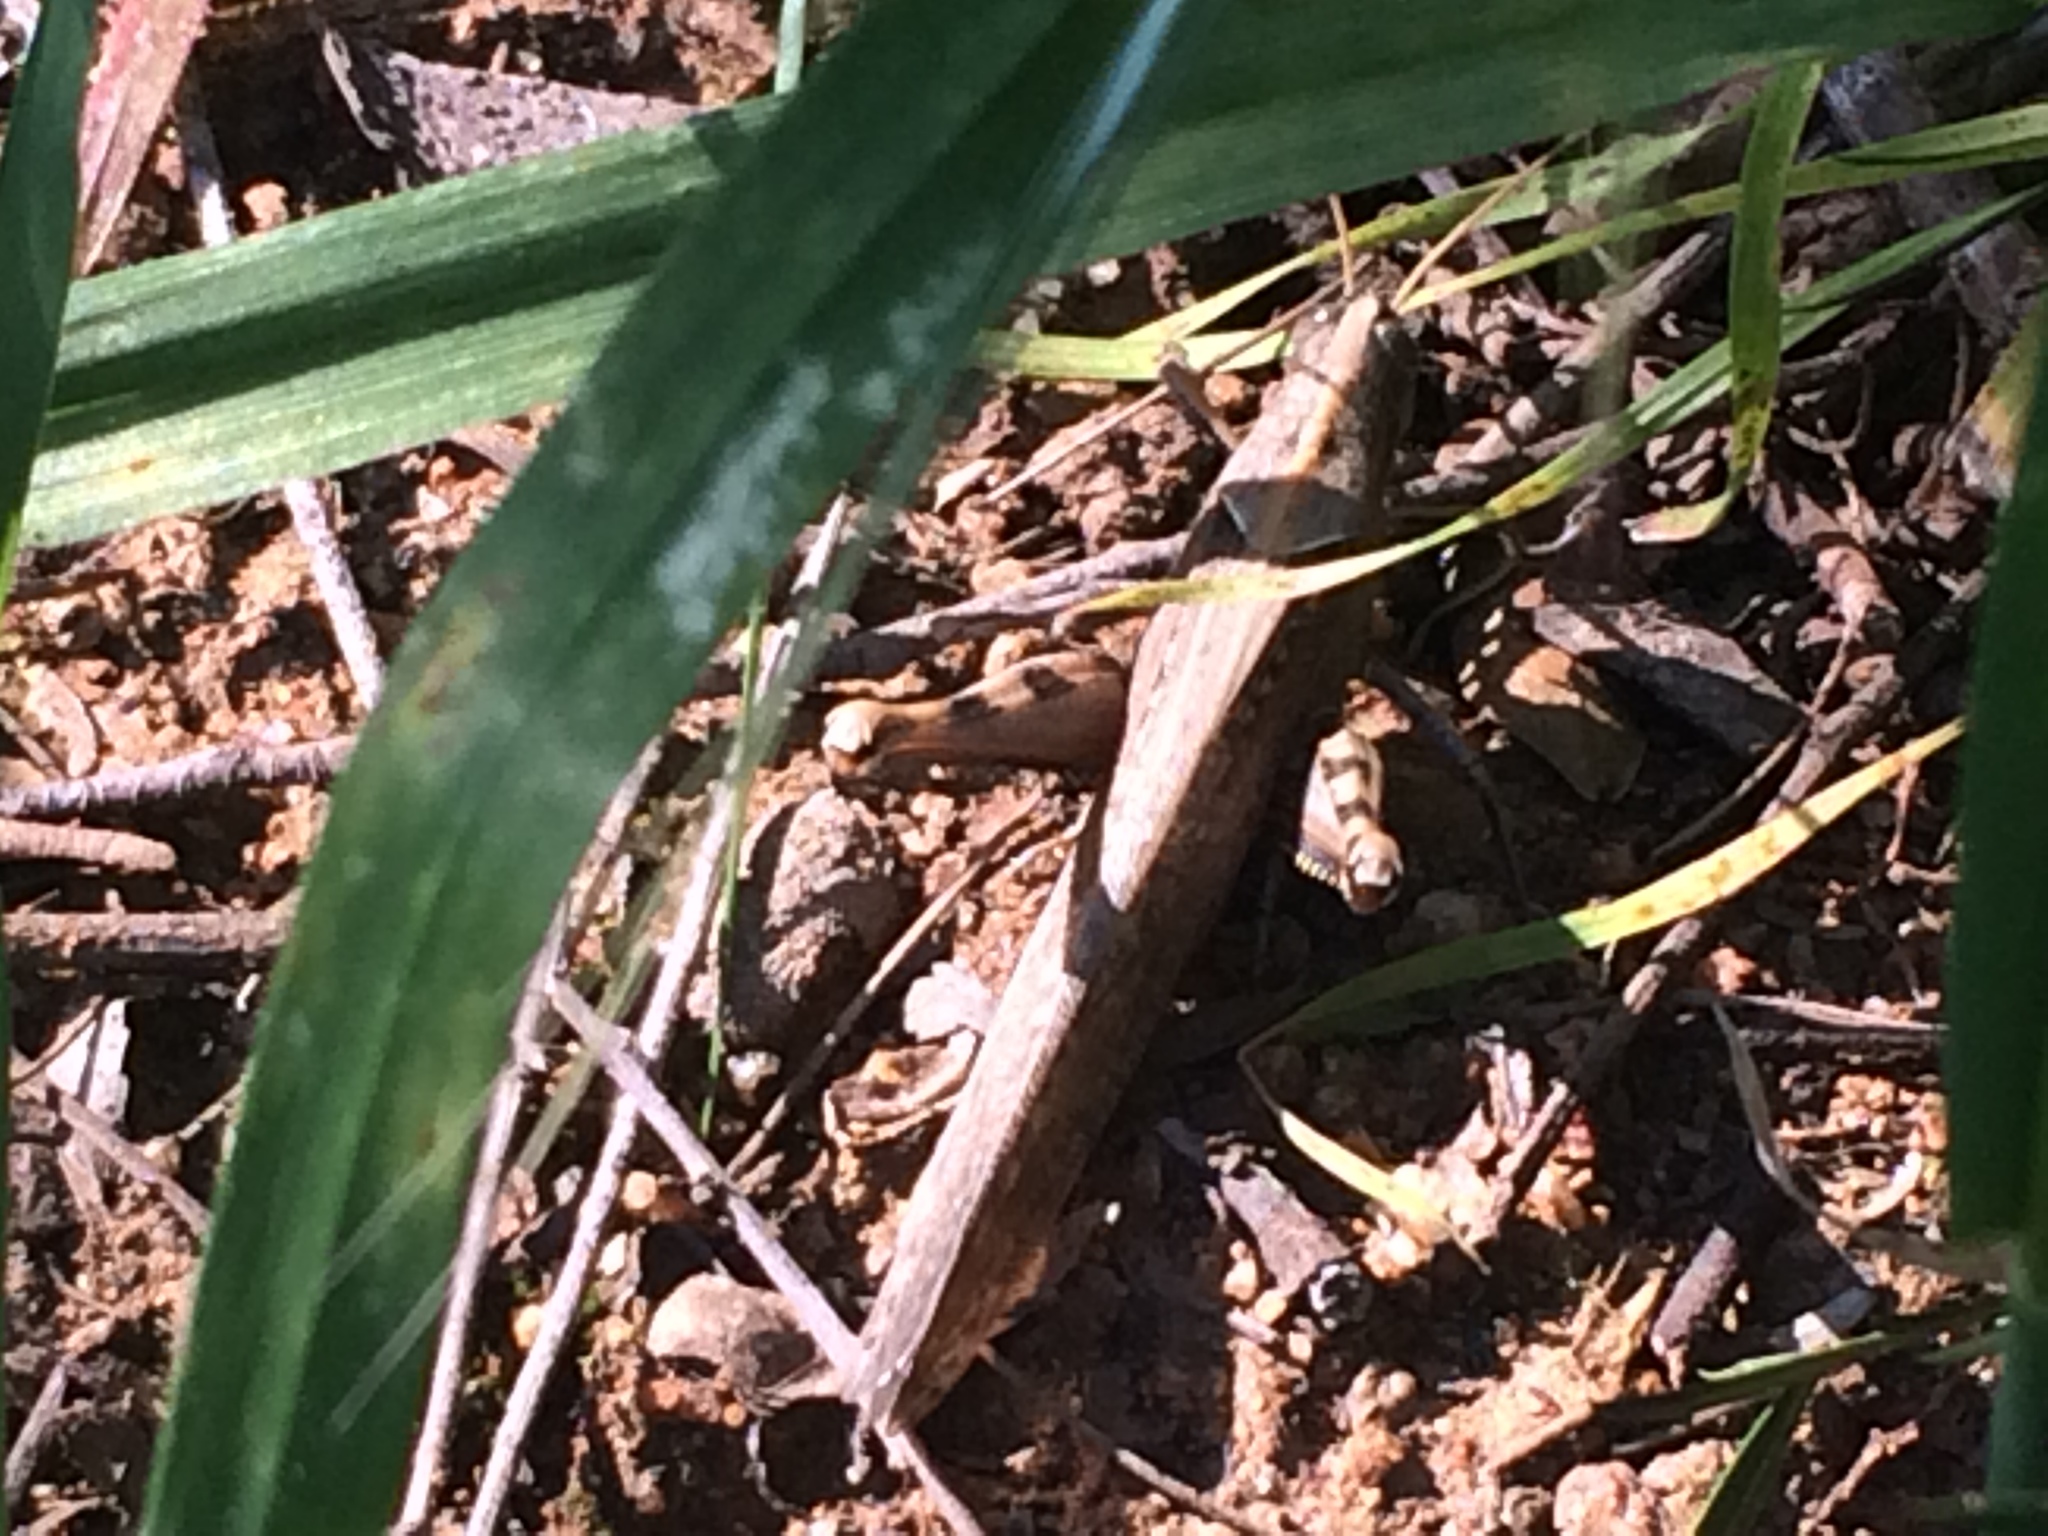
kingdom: Animalia
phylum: Arthropoda
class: Insecta
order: Orthoptera
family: Acrididae
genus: Schistocerca
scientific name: Schistocerca nitens
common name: Vagrant grasshopper
